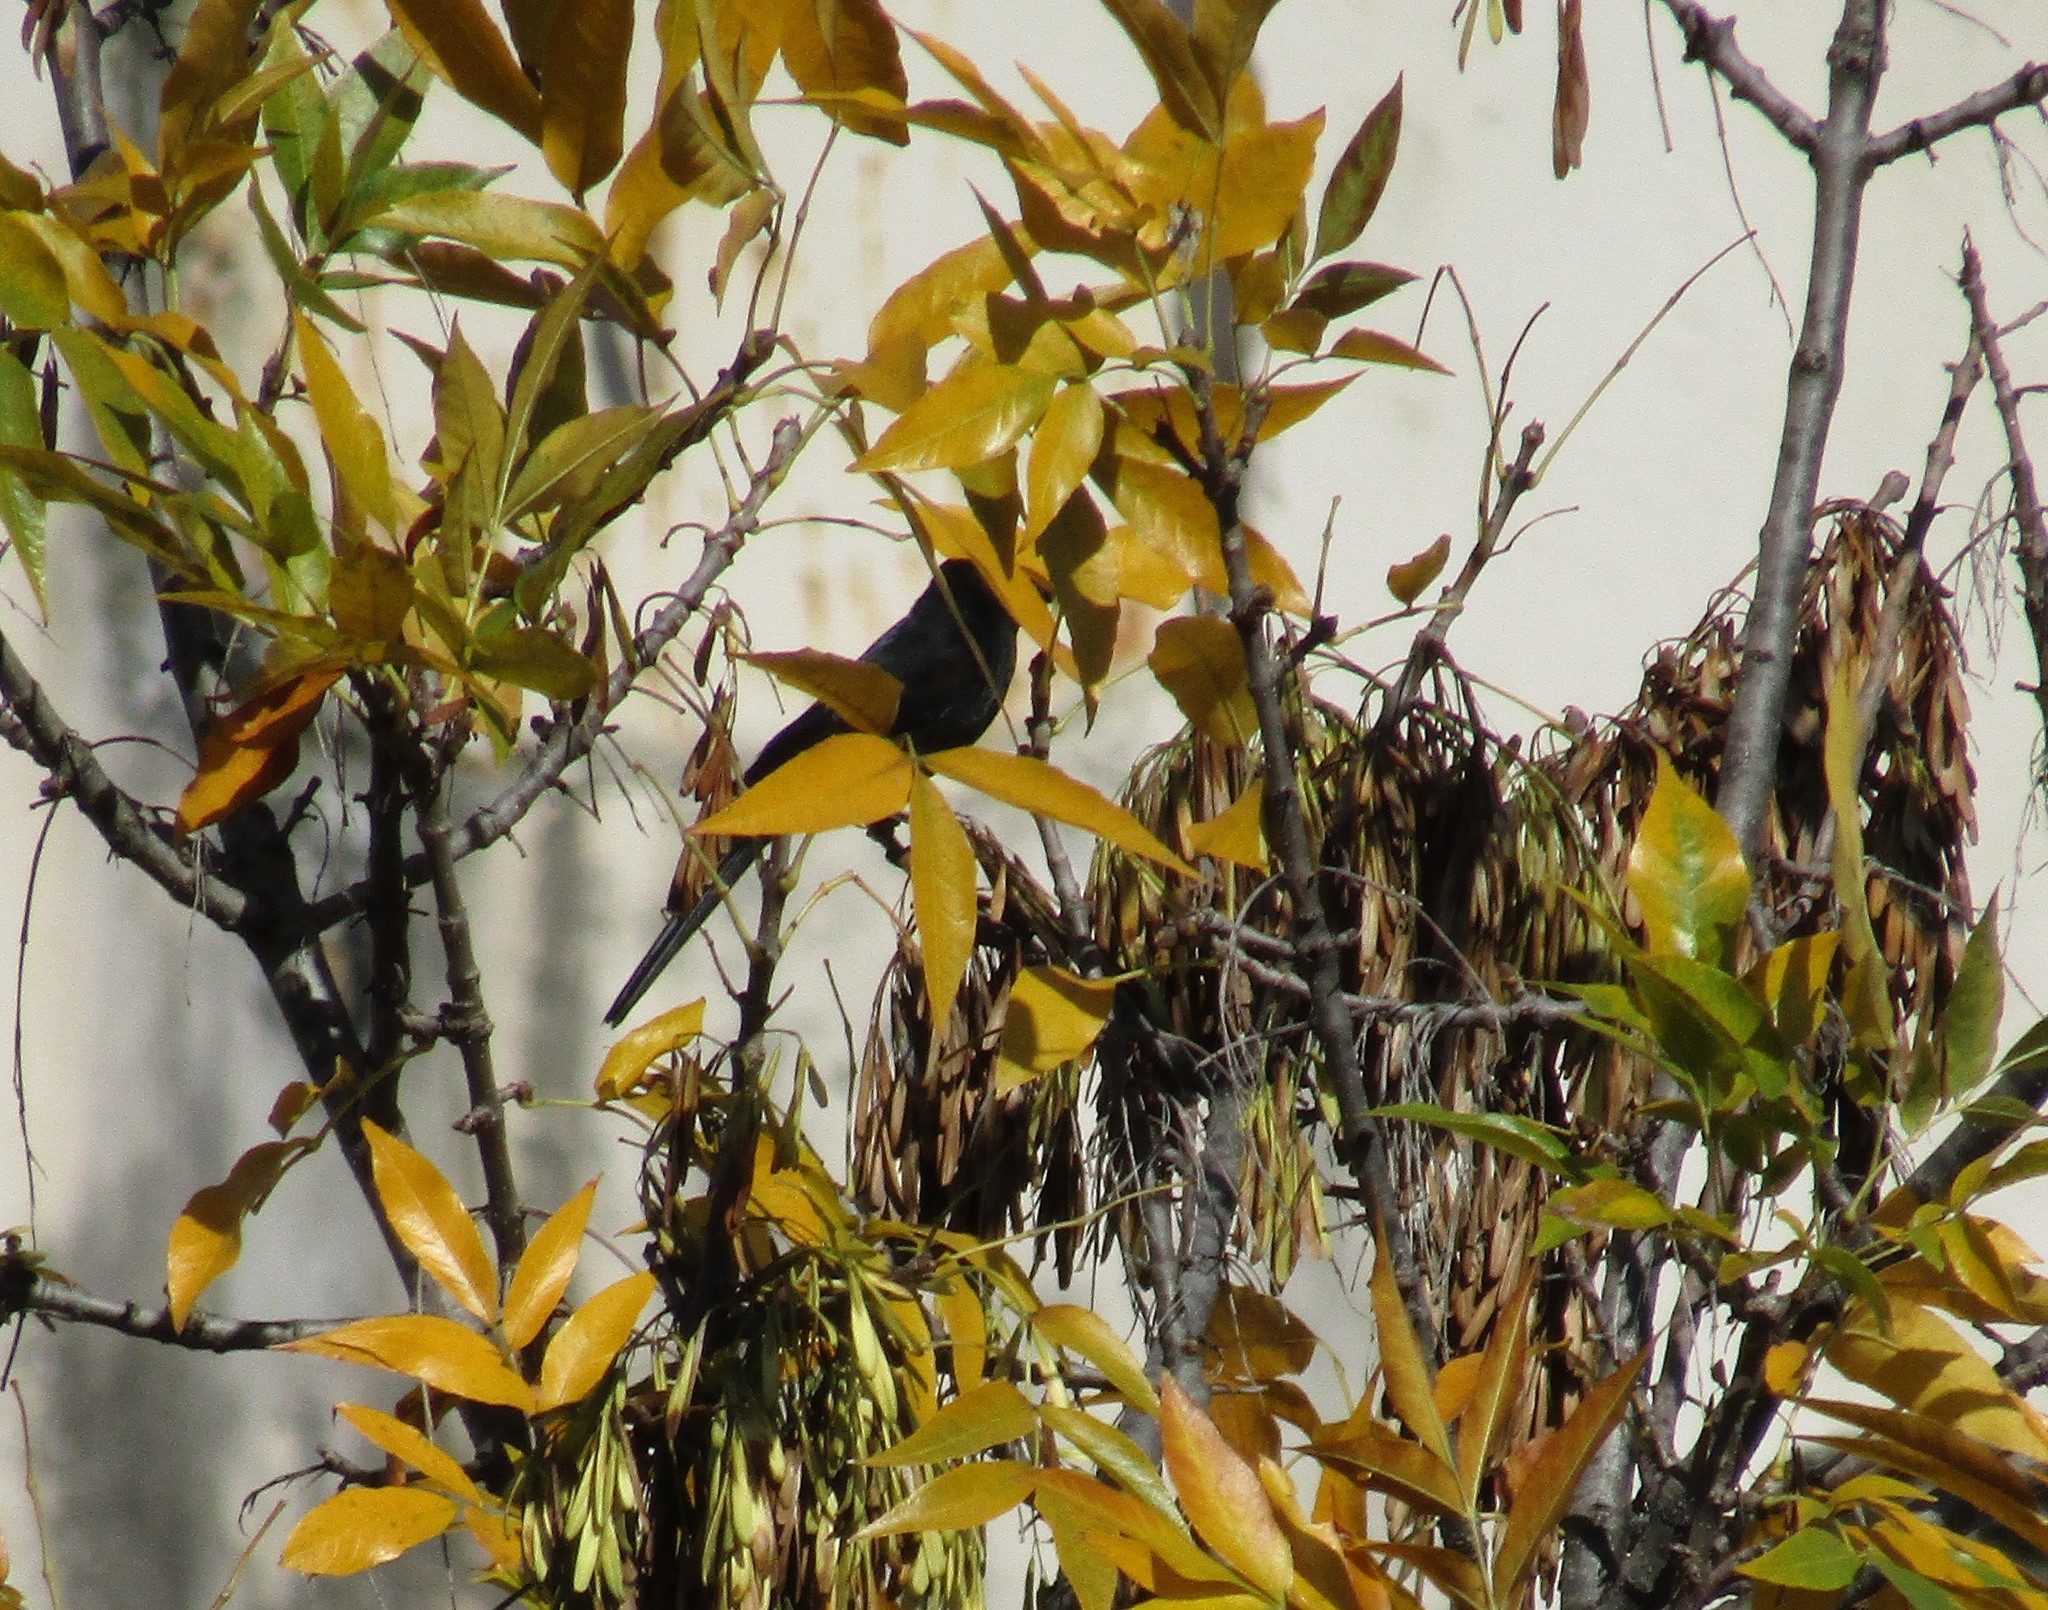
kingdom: Animalia
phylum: Chordata
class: Aves
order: Passeriformes
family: Icteridae
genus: Icterus
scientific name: Icterus cayanensis
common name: Epaulet oriole
